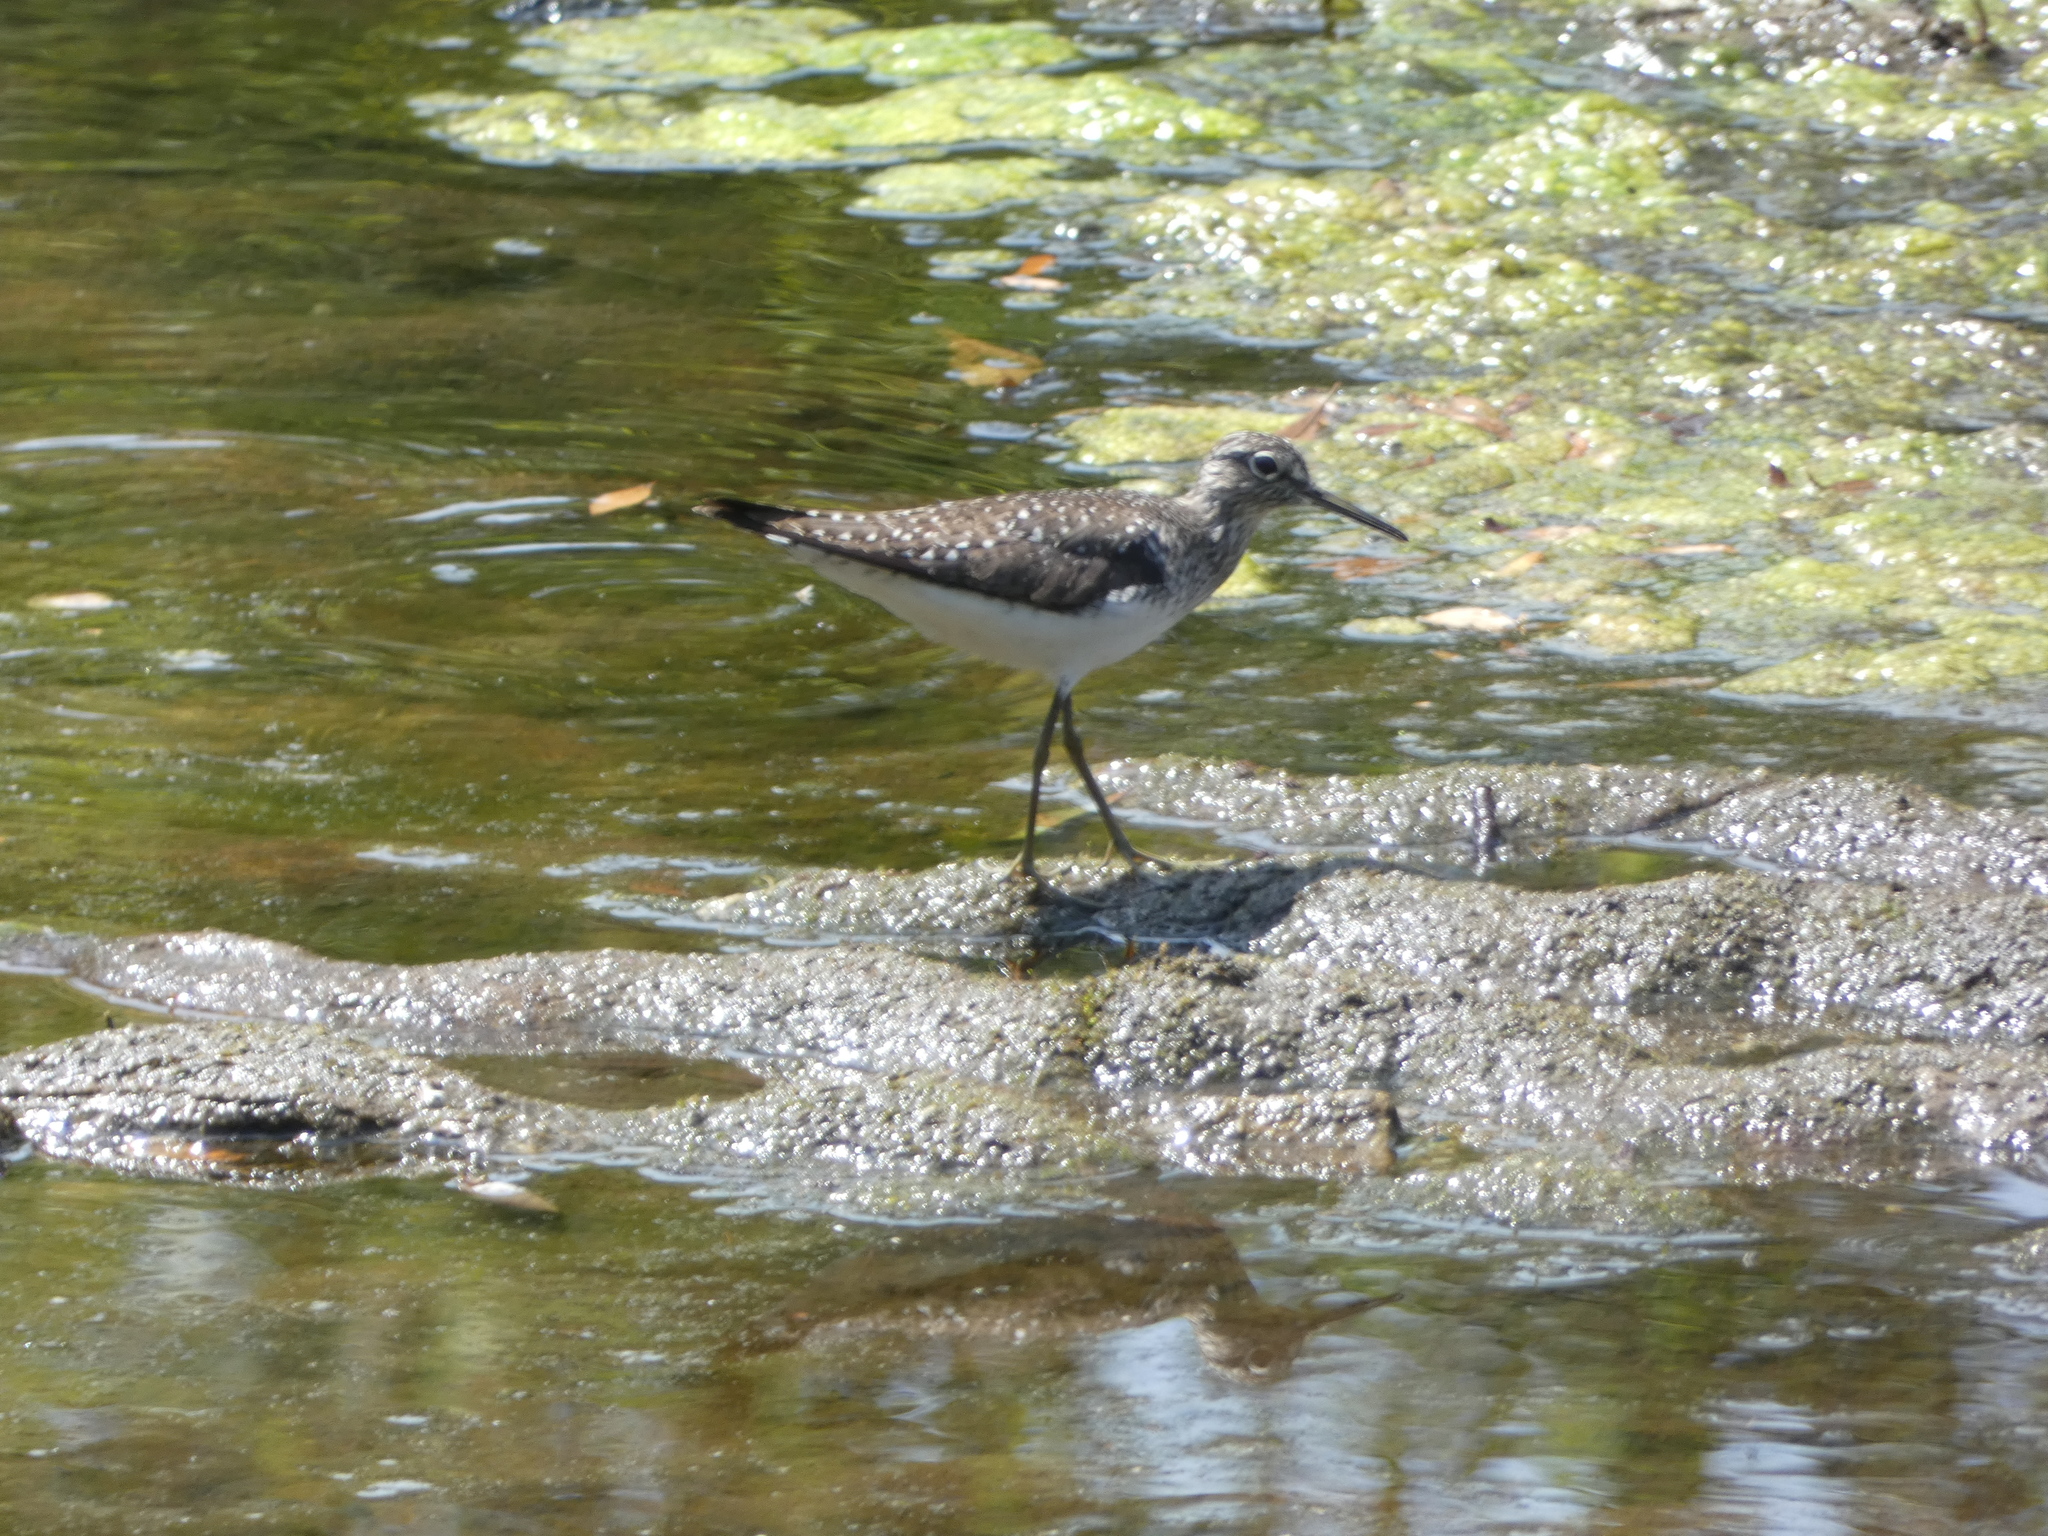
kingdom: Animalia
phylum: Chordata
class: Aves
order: Charadriiformes
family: Scolopacidae
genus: Tringa
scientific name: Tringa solitaria
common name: Solitary sandpiper
